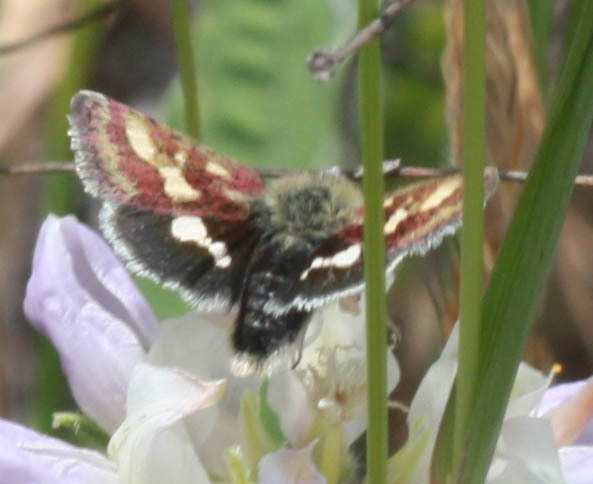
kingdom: Animalia
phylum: Arthropoda
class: Insecta
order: Lepidoptera
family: Noctuidae
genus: Heliothodes
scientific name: Heliothodes diminutiva
